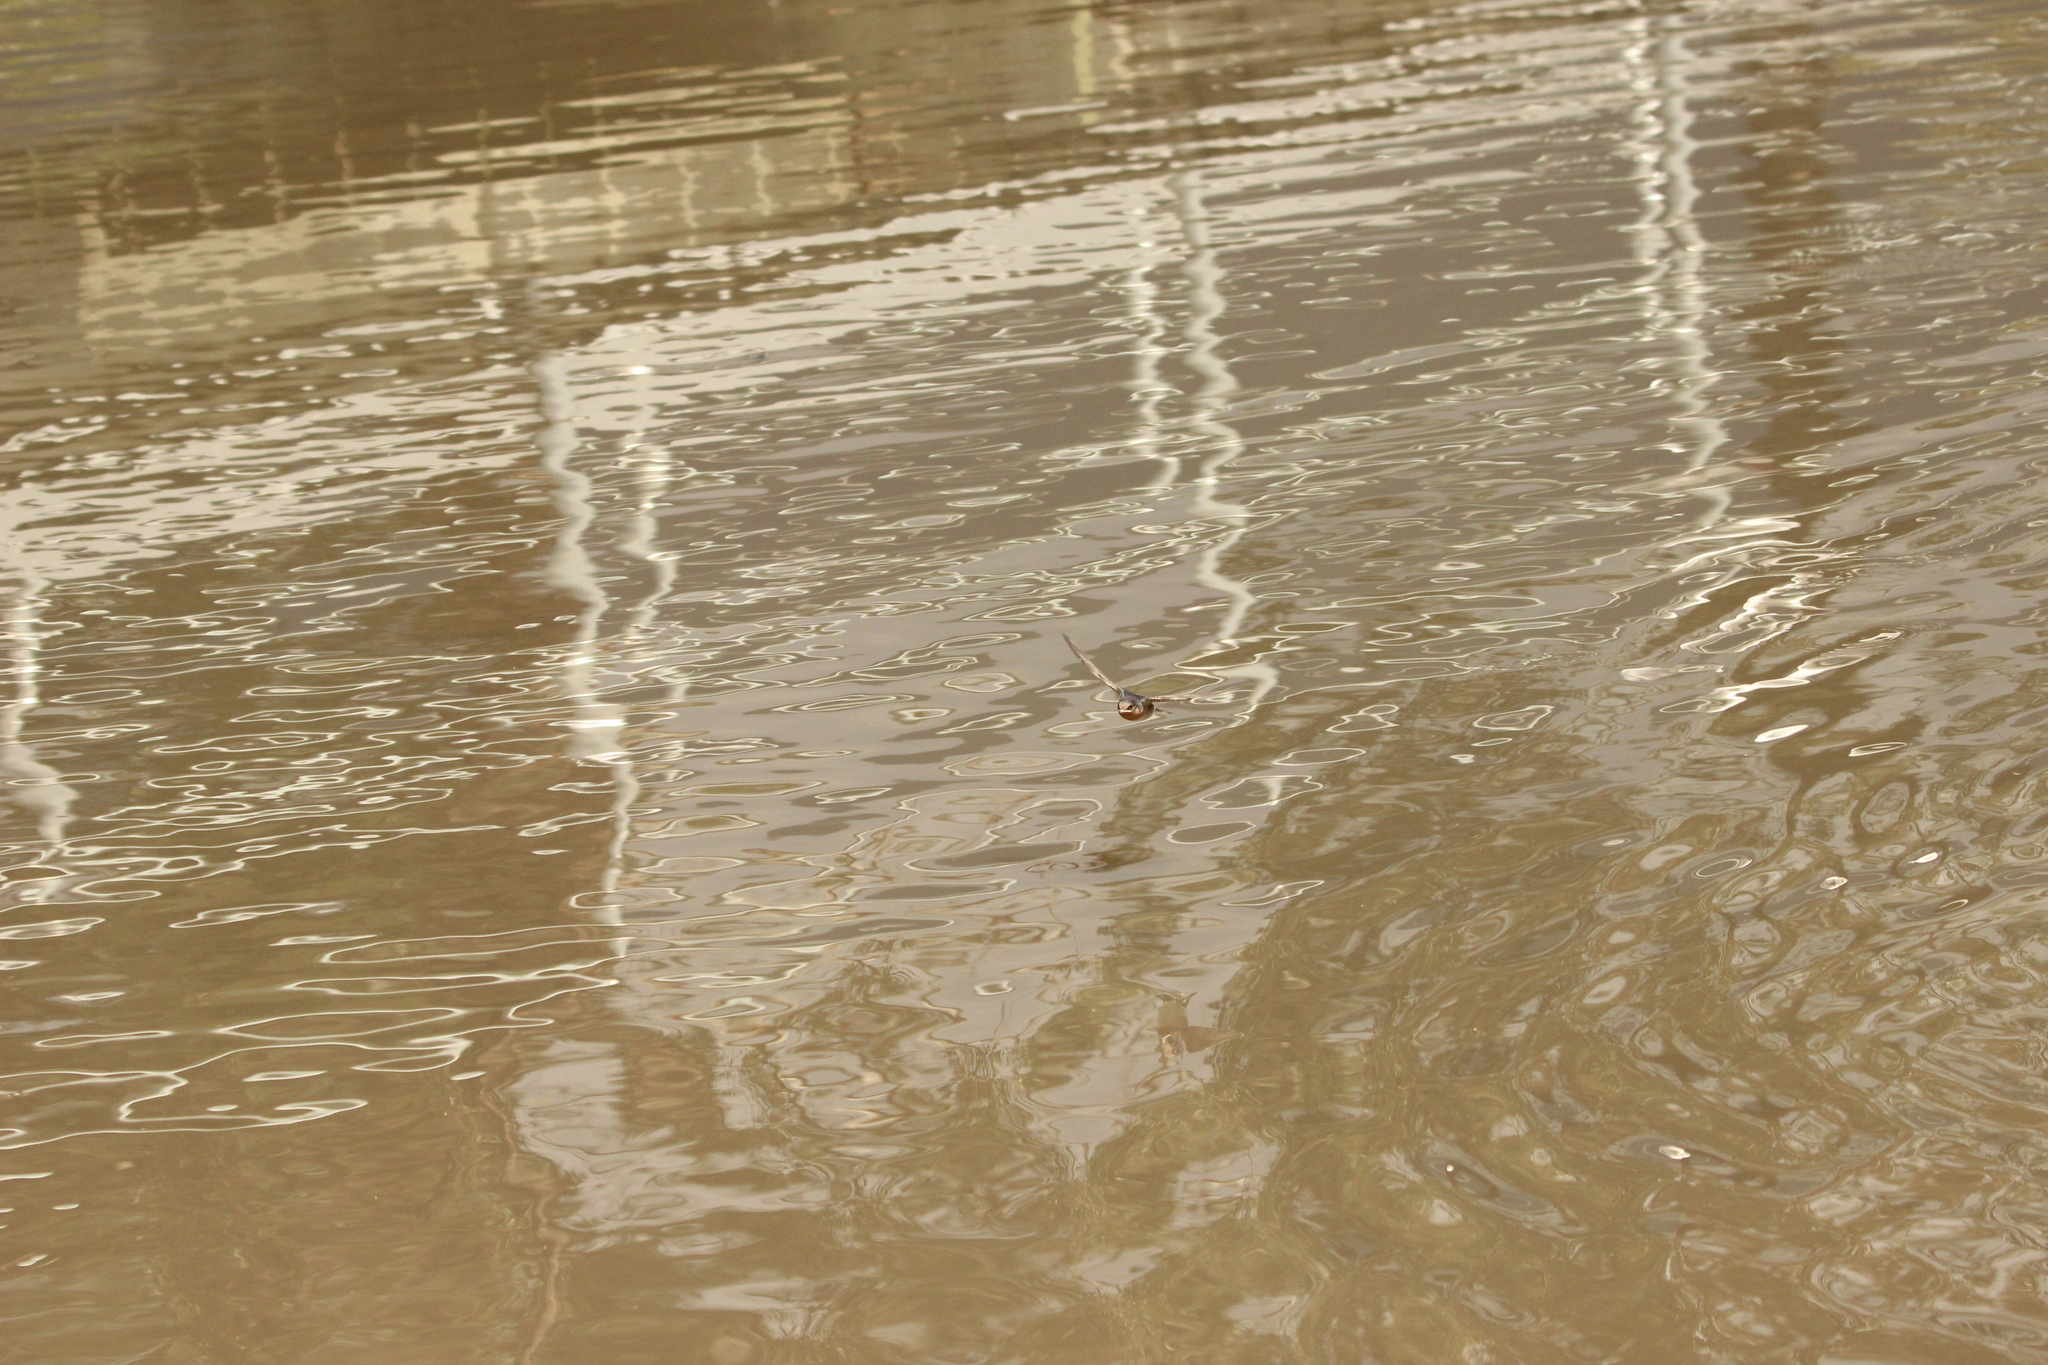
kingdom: Animalia
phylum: Chordata
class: Aves
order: Passeriformes
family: Hirundinidae
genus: Hirundo
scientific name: Hirundo neoxena
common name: Welcome swallow
